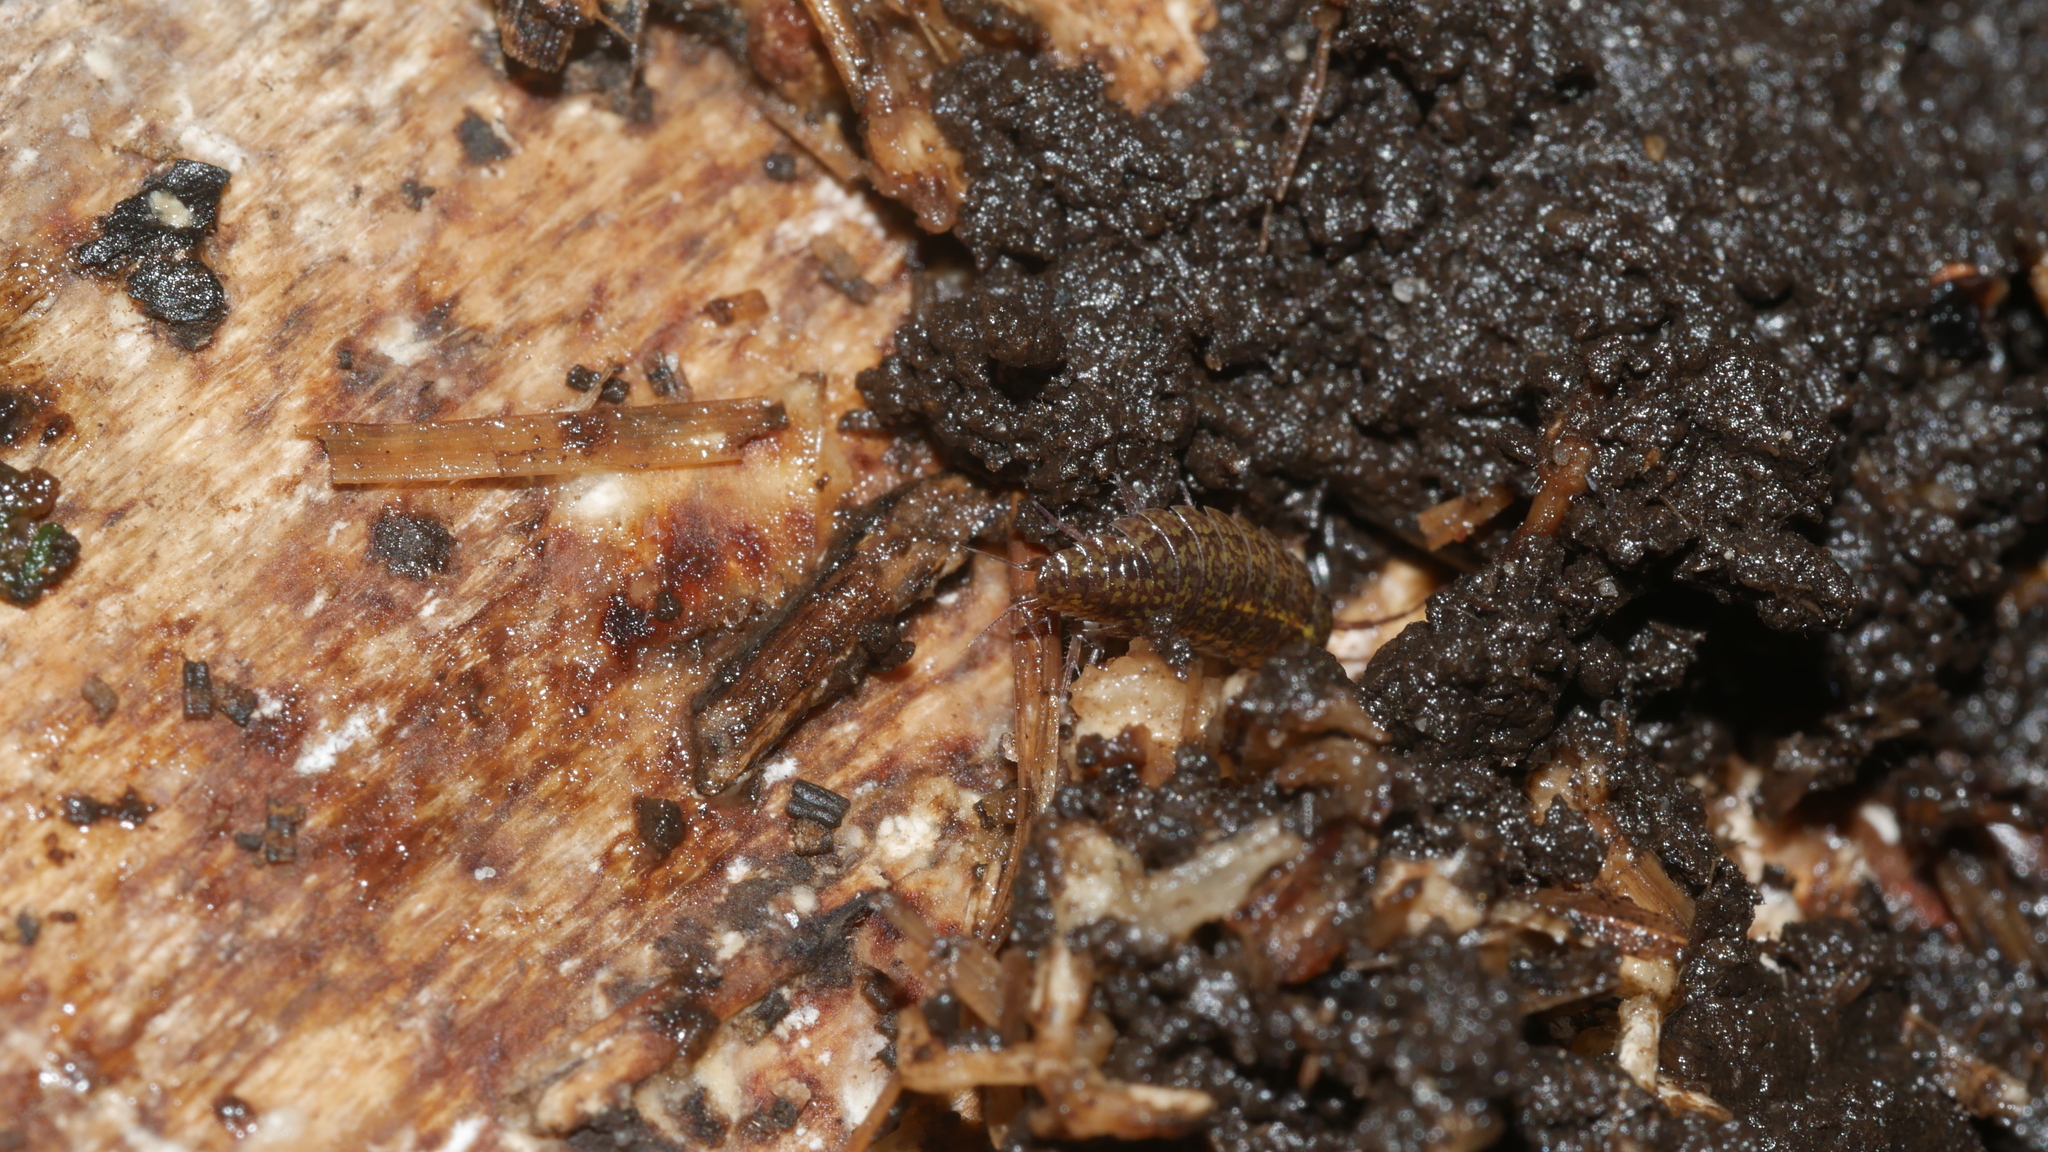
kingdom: Animalia
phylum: Arthropoda
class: Malacostraca
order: Isopoda
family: Ligiidae
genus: Ligidium
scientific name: Ligidium elrodii
